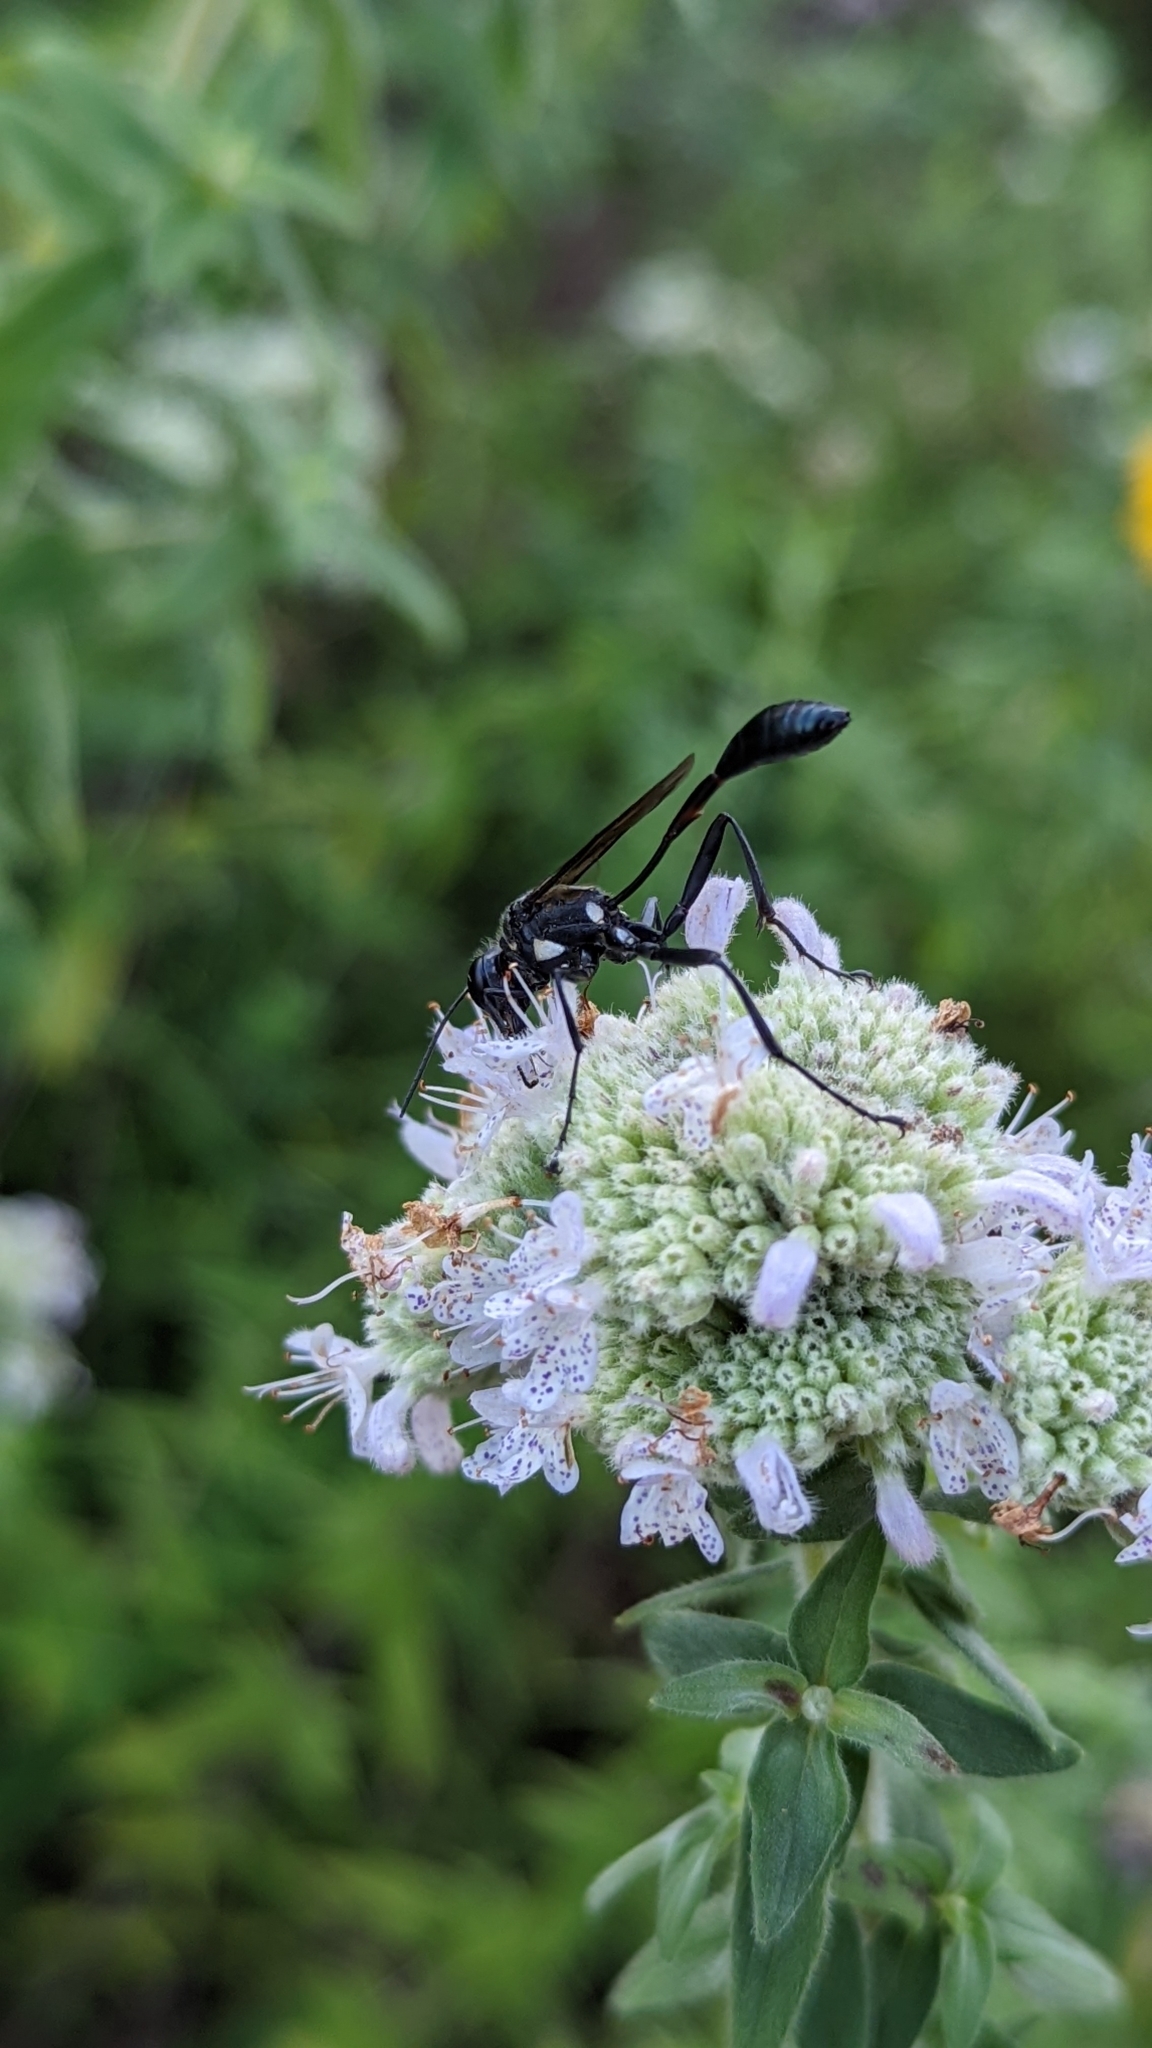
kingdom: Animalia
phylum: Arthropoda
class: Insecta
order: Hymenoptera
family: Sphecidae
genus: Eremnophila
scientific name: Eremnophila aureonotata
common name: Gold-marked thread-waisted wasp
